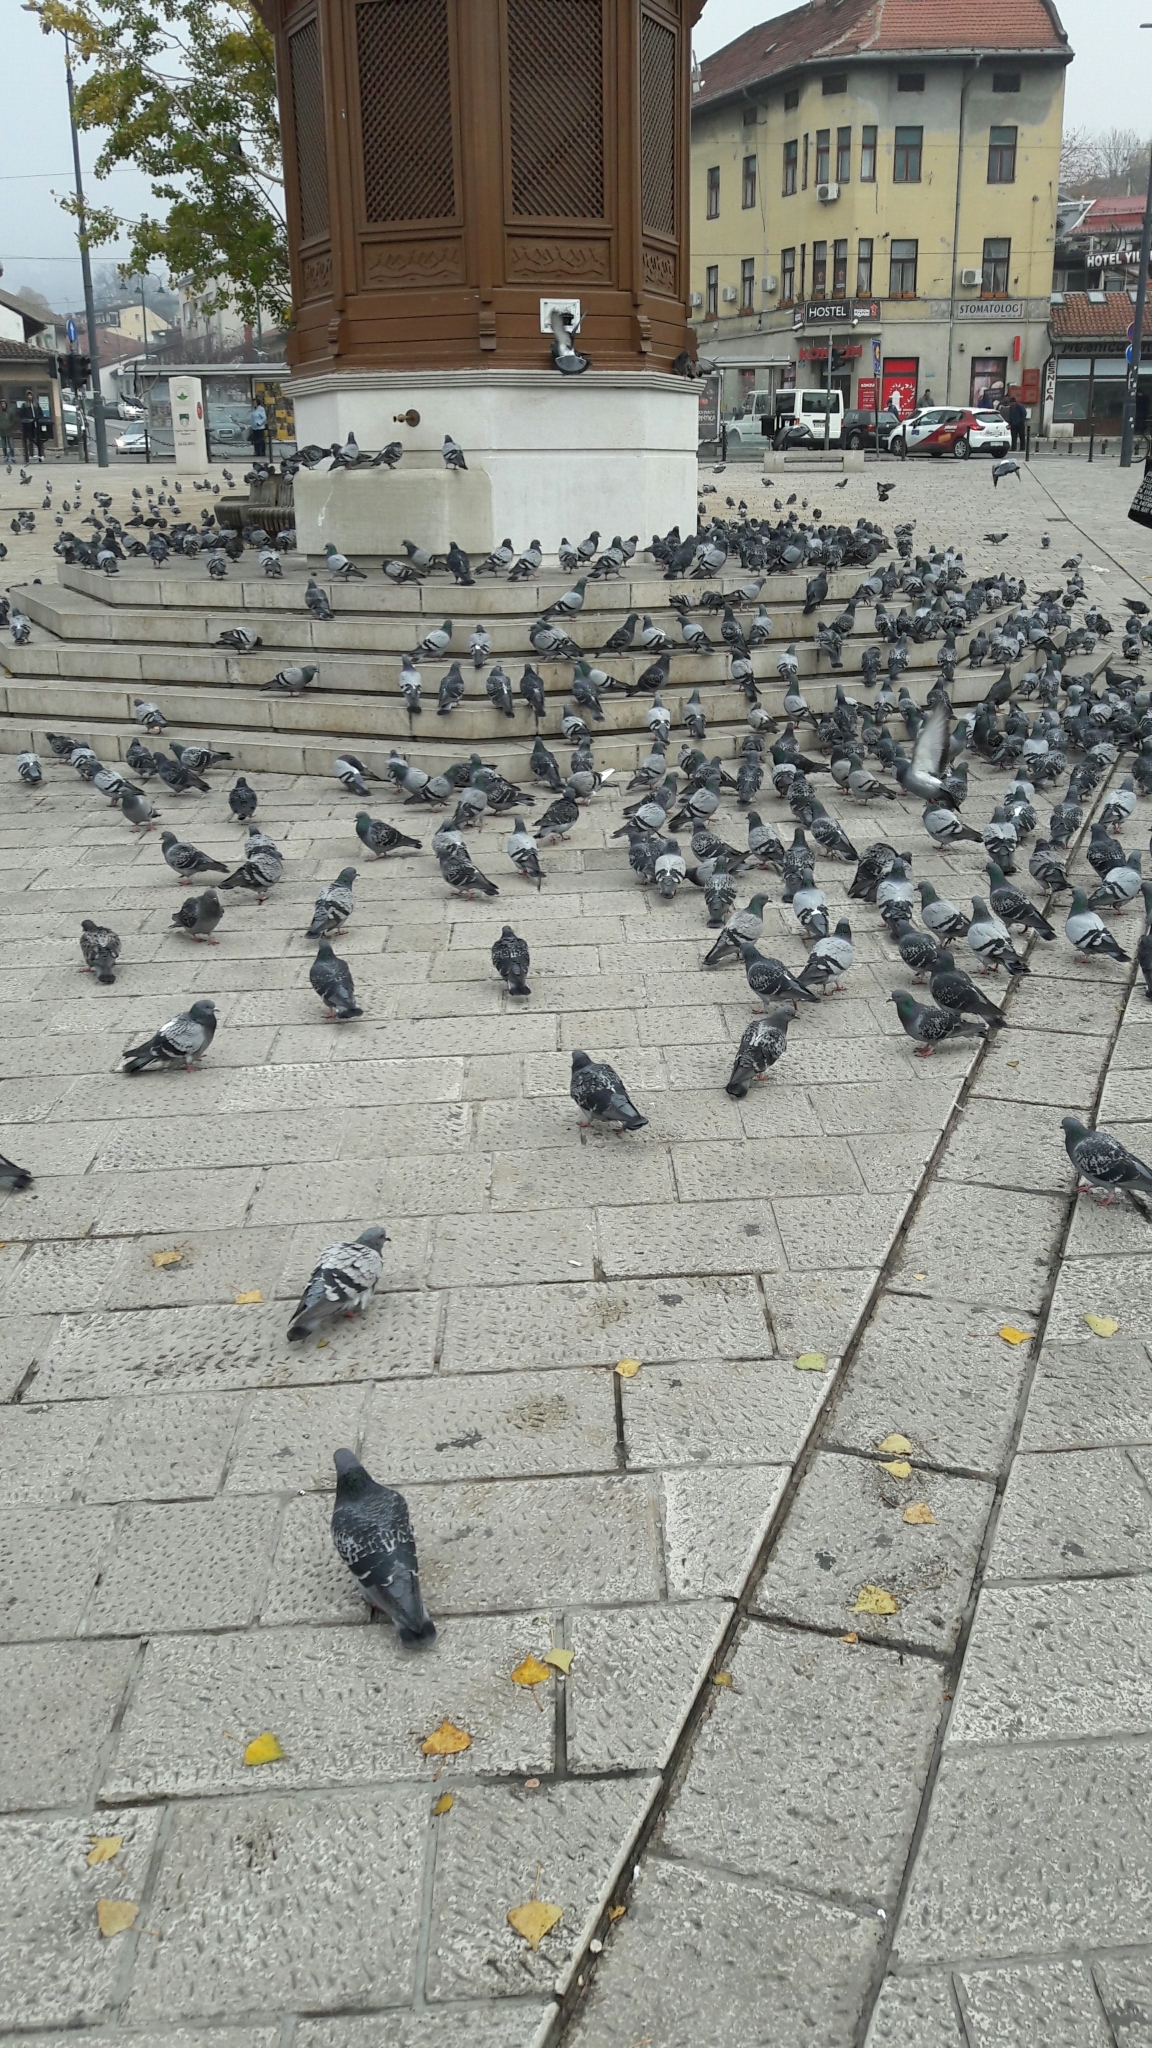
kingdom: Animalia
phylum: Chordata
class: Aves
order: Columbiformes
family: Columbidae
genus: Columba
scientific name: Columba livia
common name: Rock pigeon
